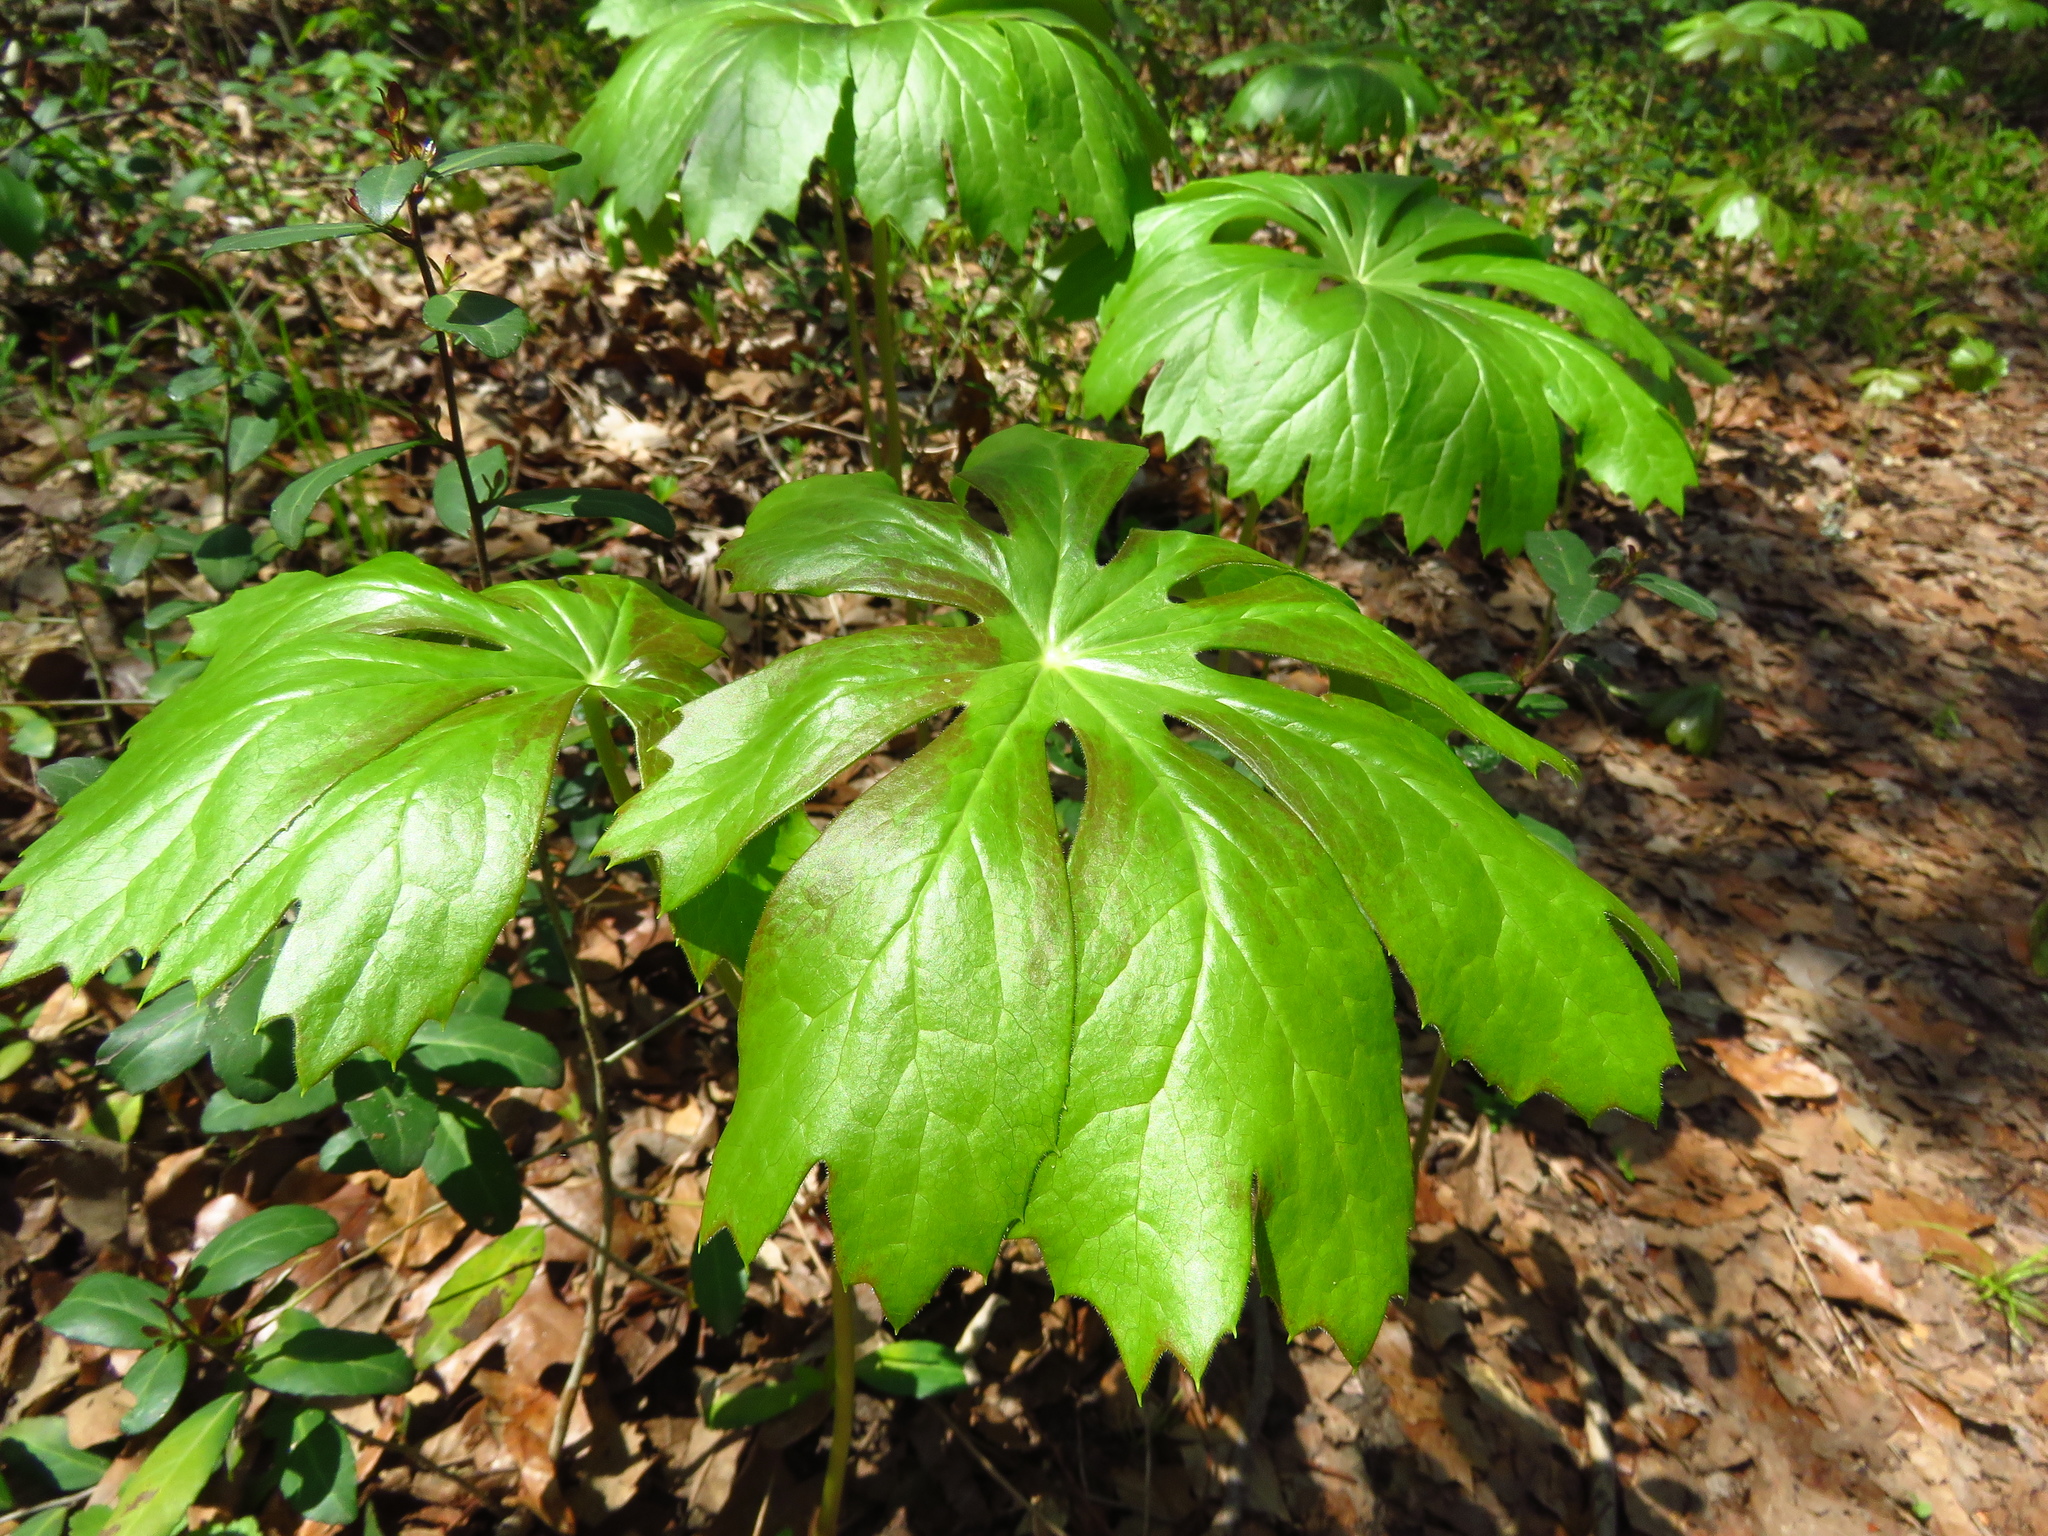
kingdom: Plantae
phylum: Tracheophyta
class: Magnoliopsida
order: Ranunculales
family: Berberidaceae
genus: Podophyllum
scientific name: Podophyllum peltatum
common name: Wild mandrake
